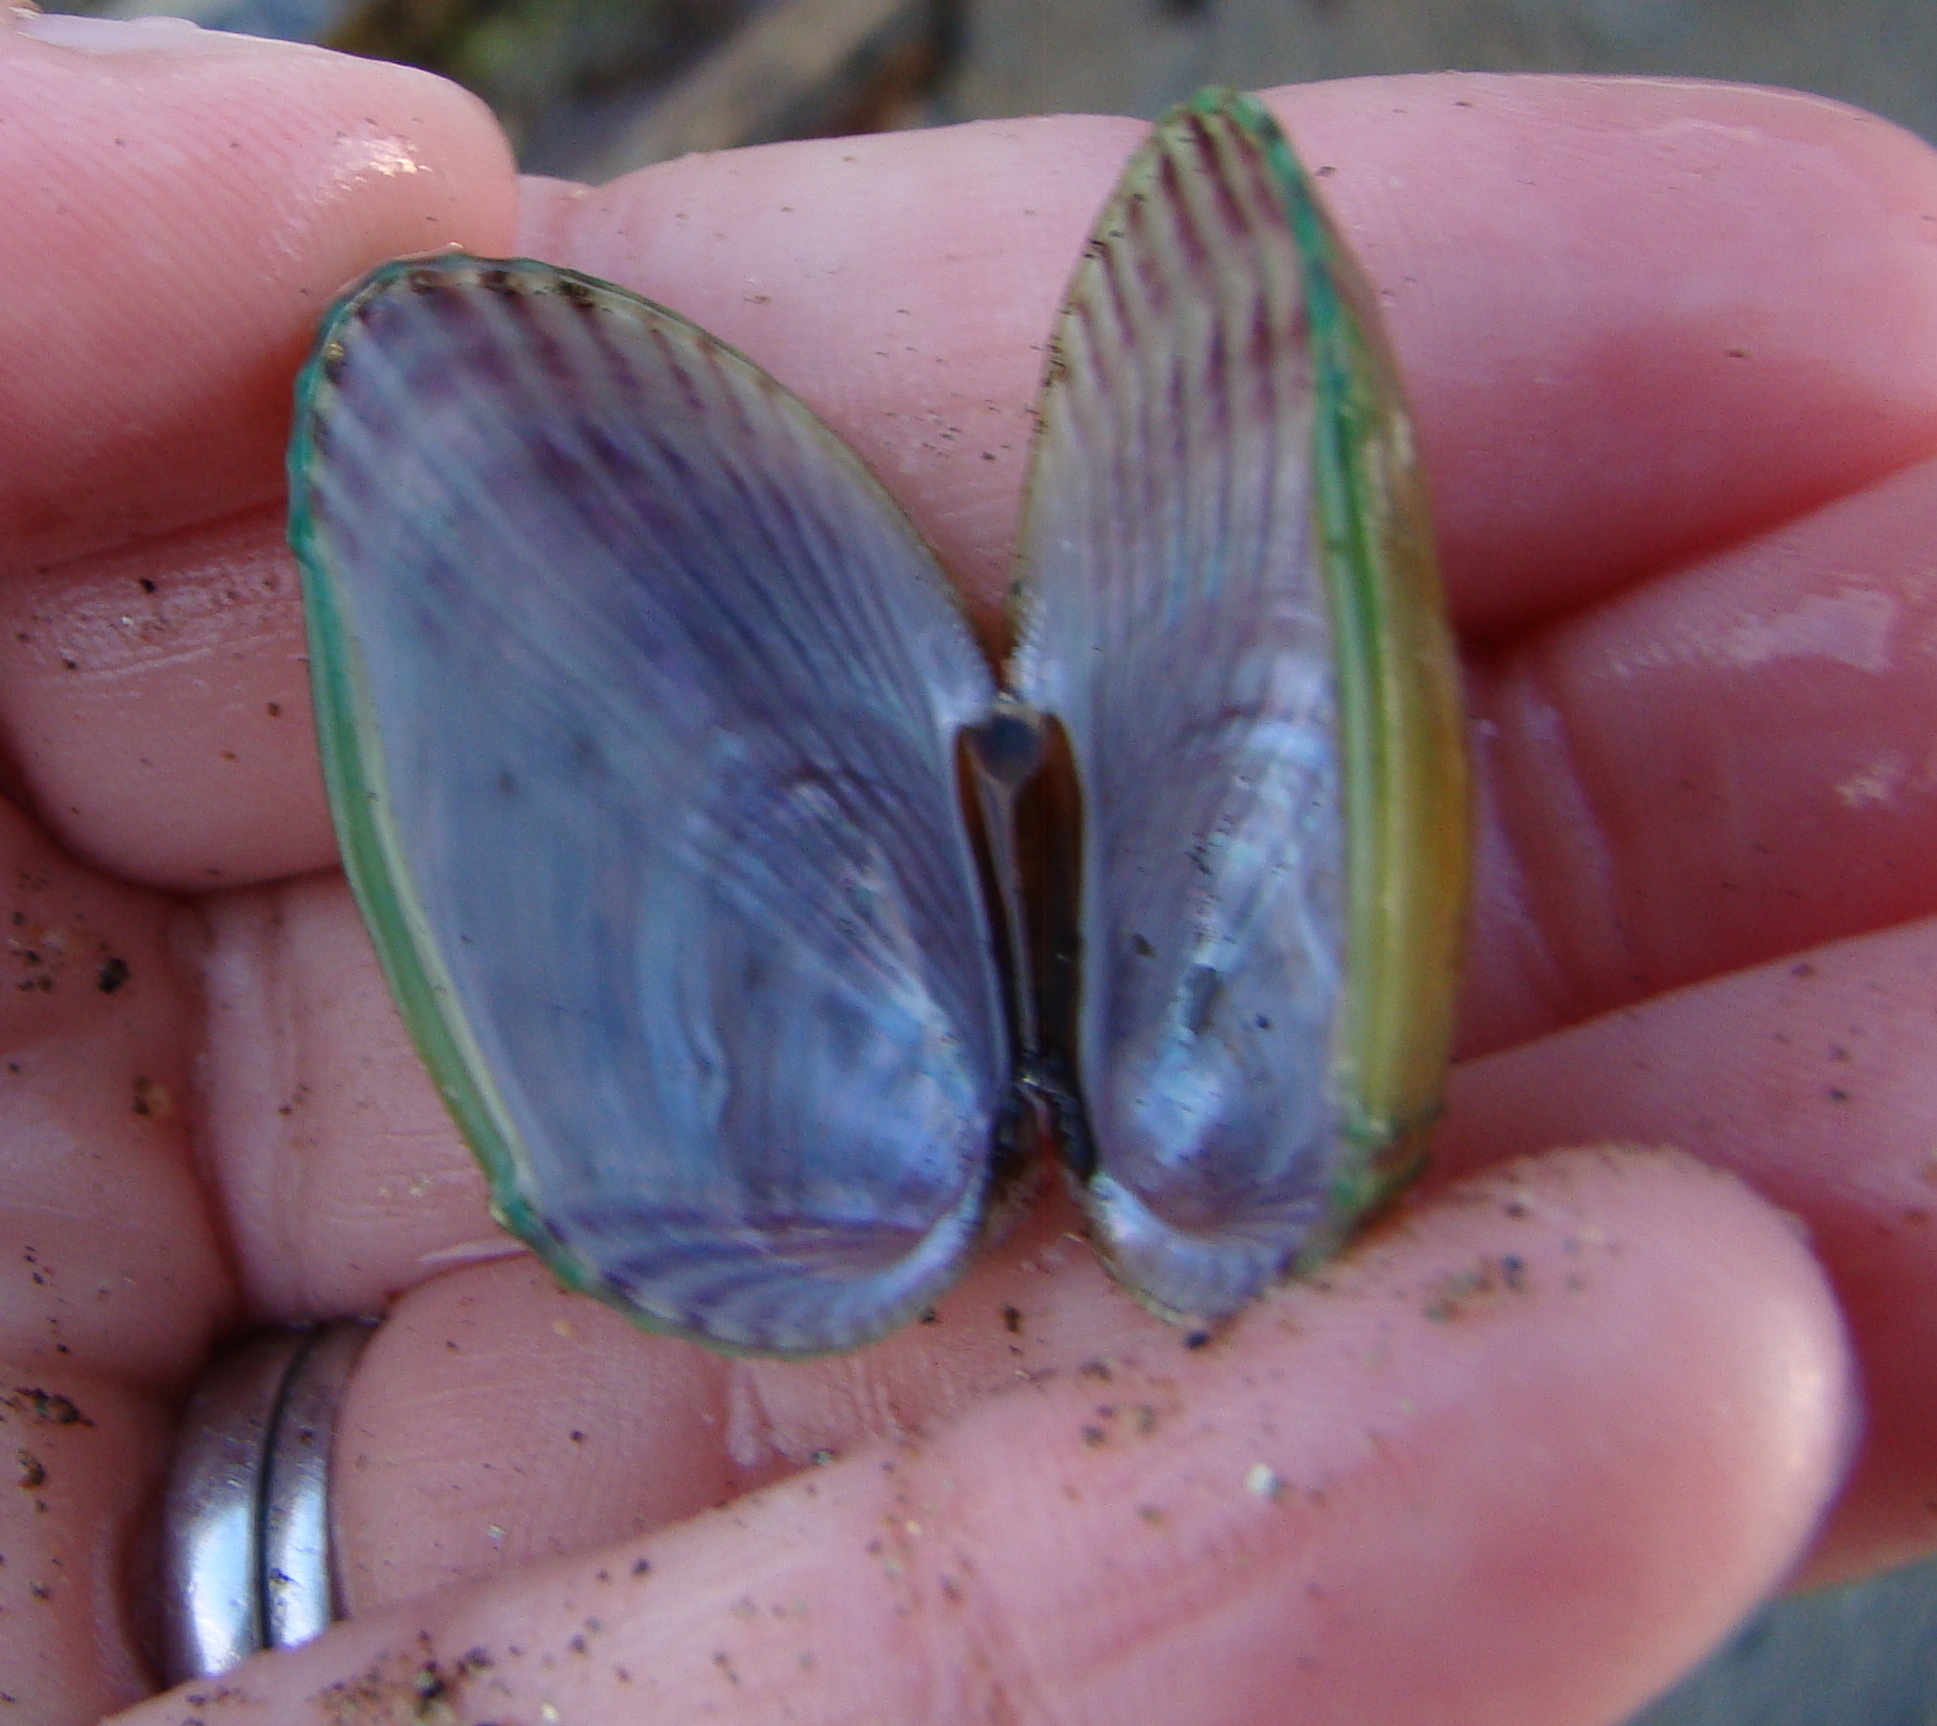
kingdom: Animalia
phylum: Mollusca
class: Bivalvia
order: Mytilida
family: Mytilidae
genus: Musculus
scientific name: Musculus impactus
